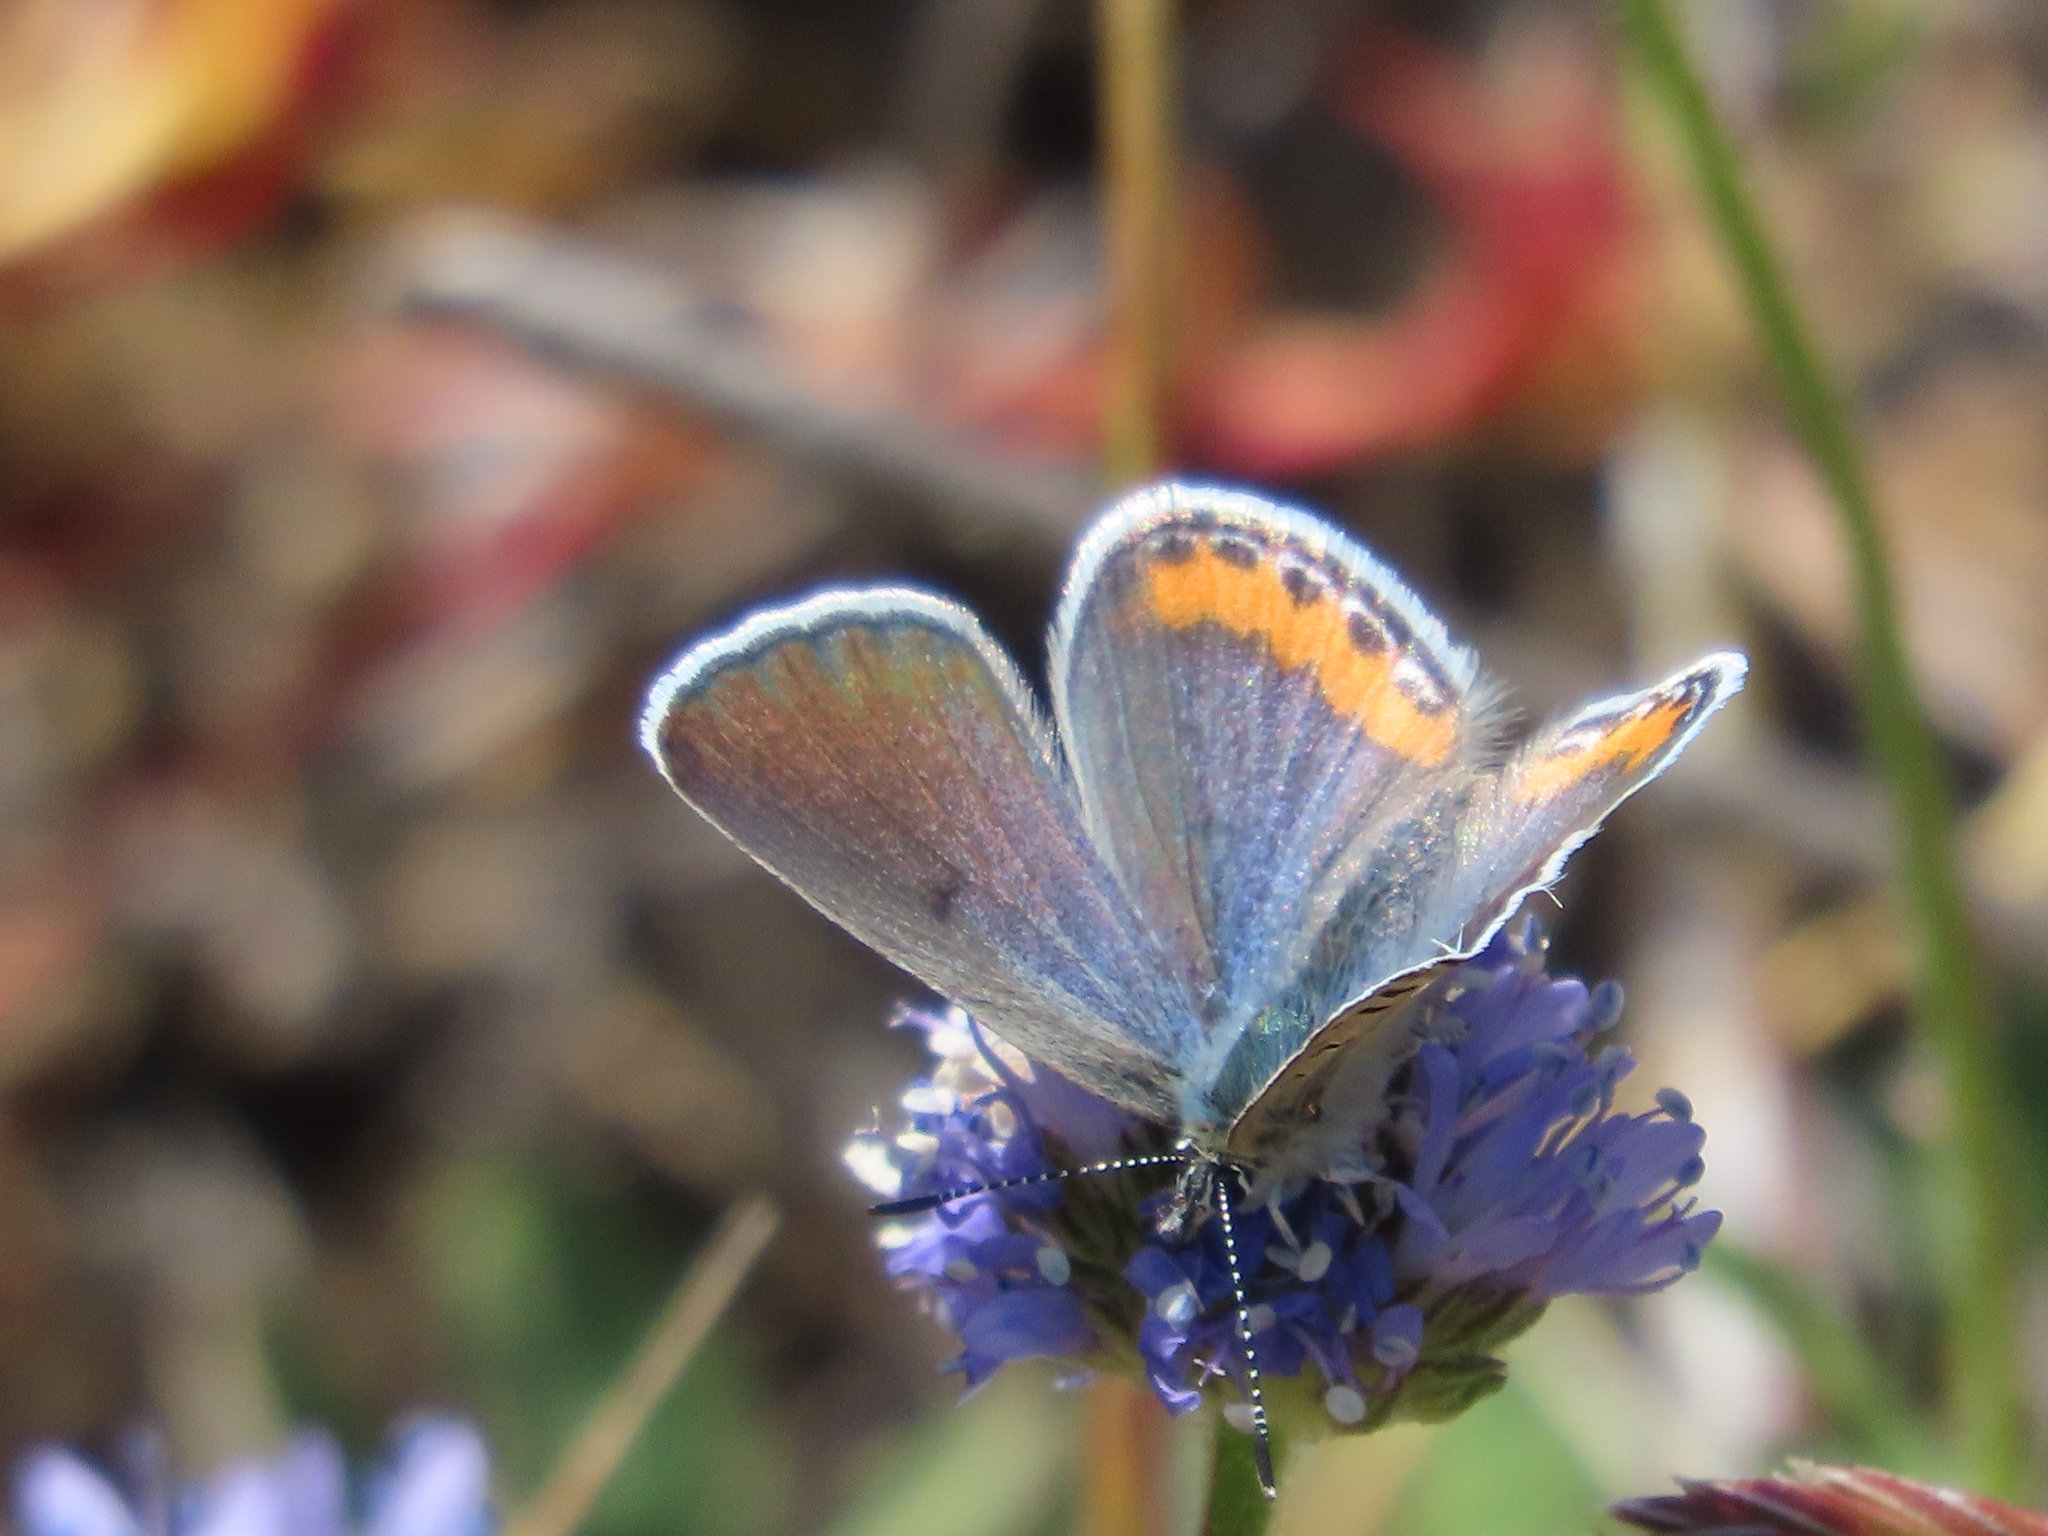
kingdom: Animalia
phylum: Arthropoda
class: Insecta
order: Lepidoptera
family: Lycaenidae
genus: Icaricia
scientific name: Icaricia acmon
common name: Acmon blue
